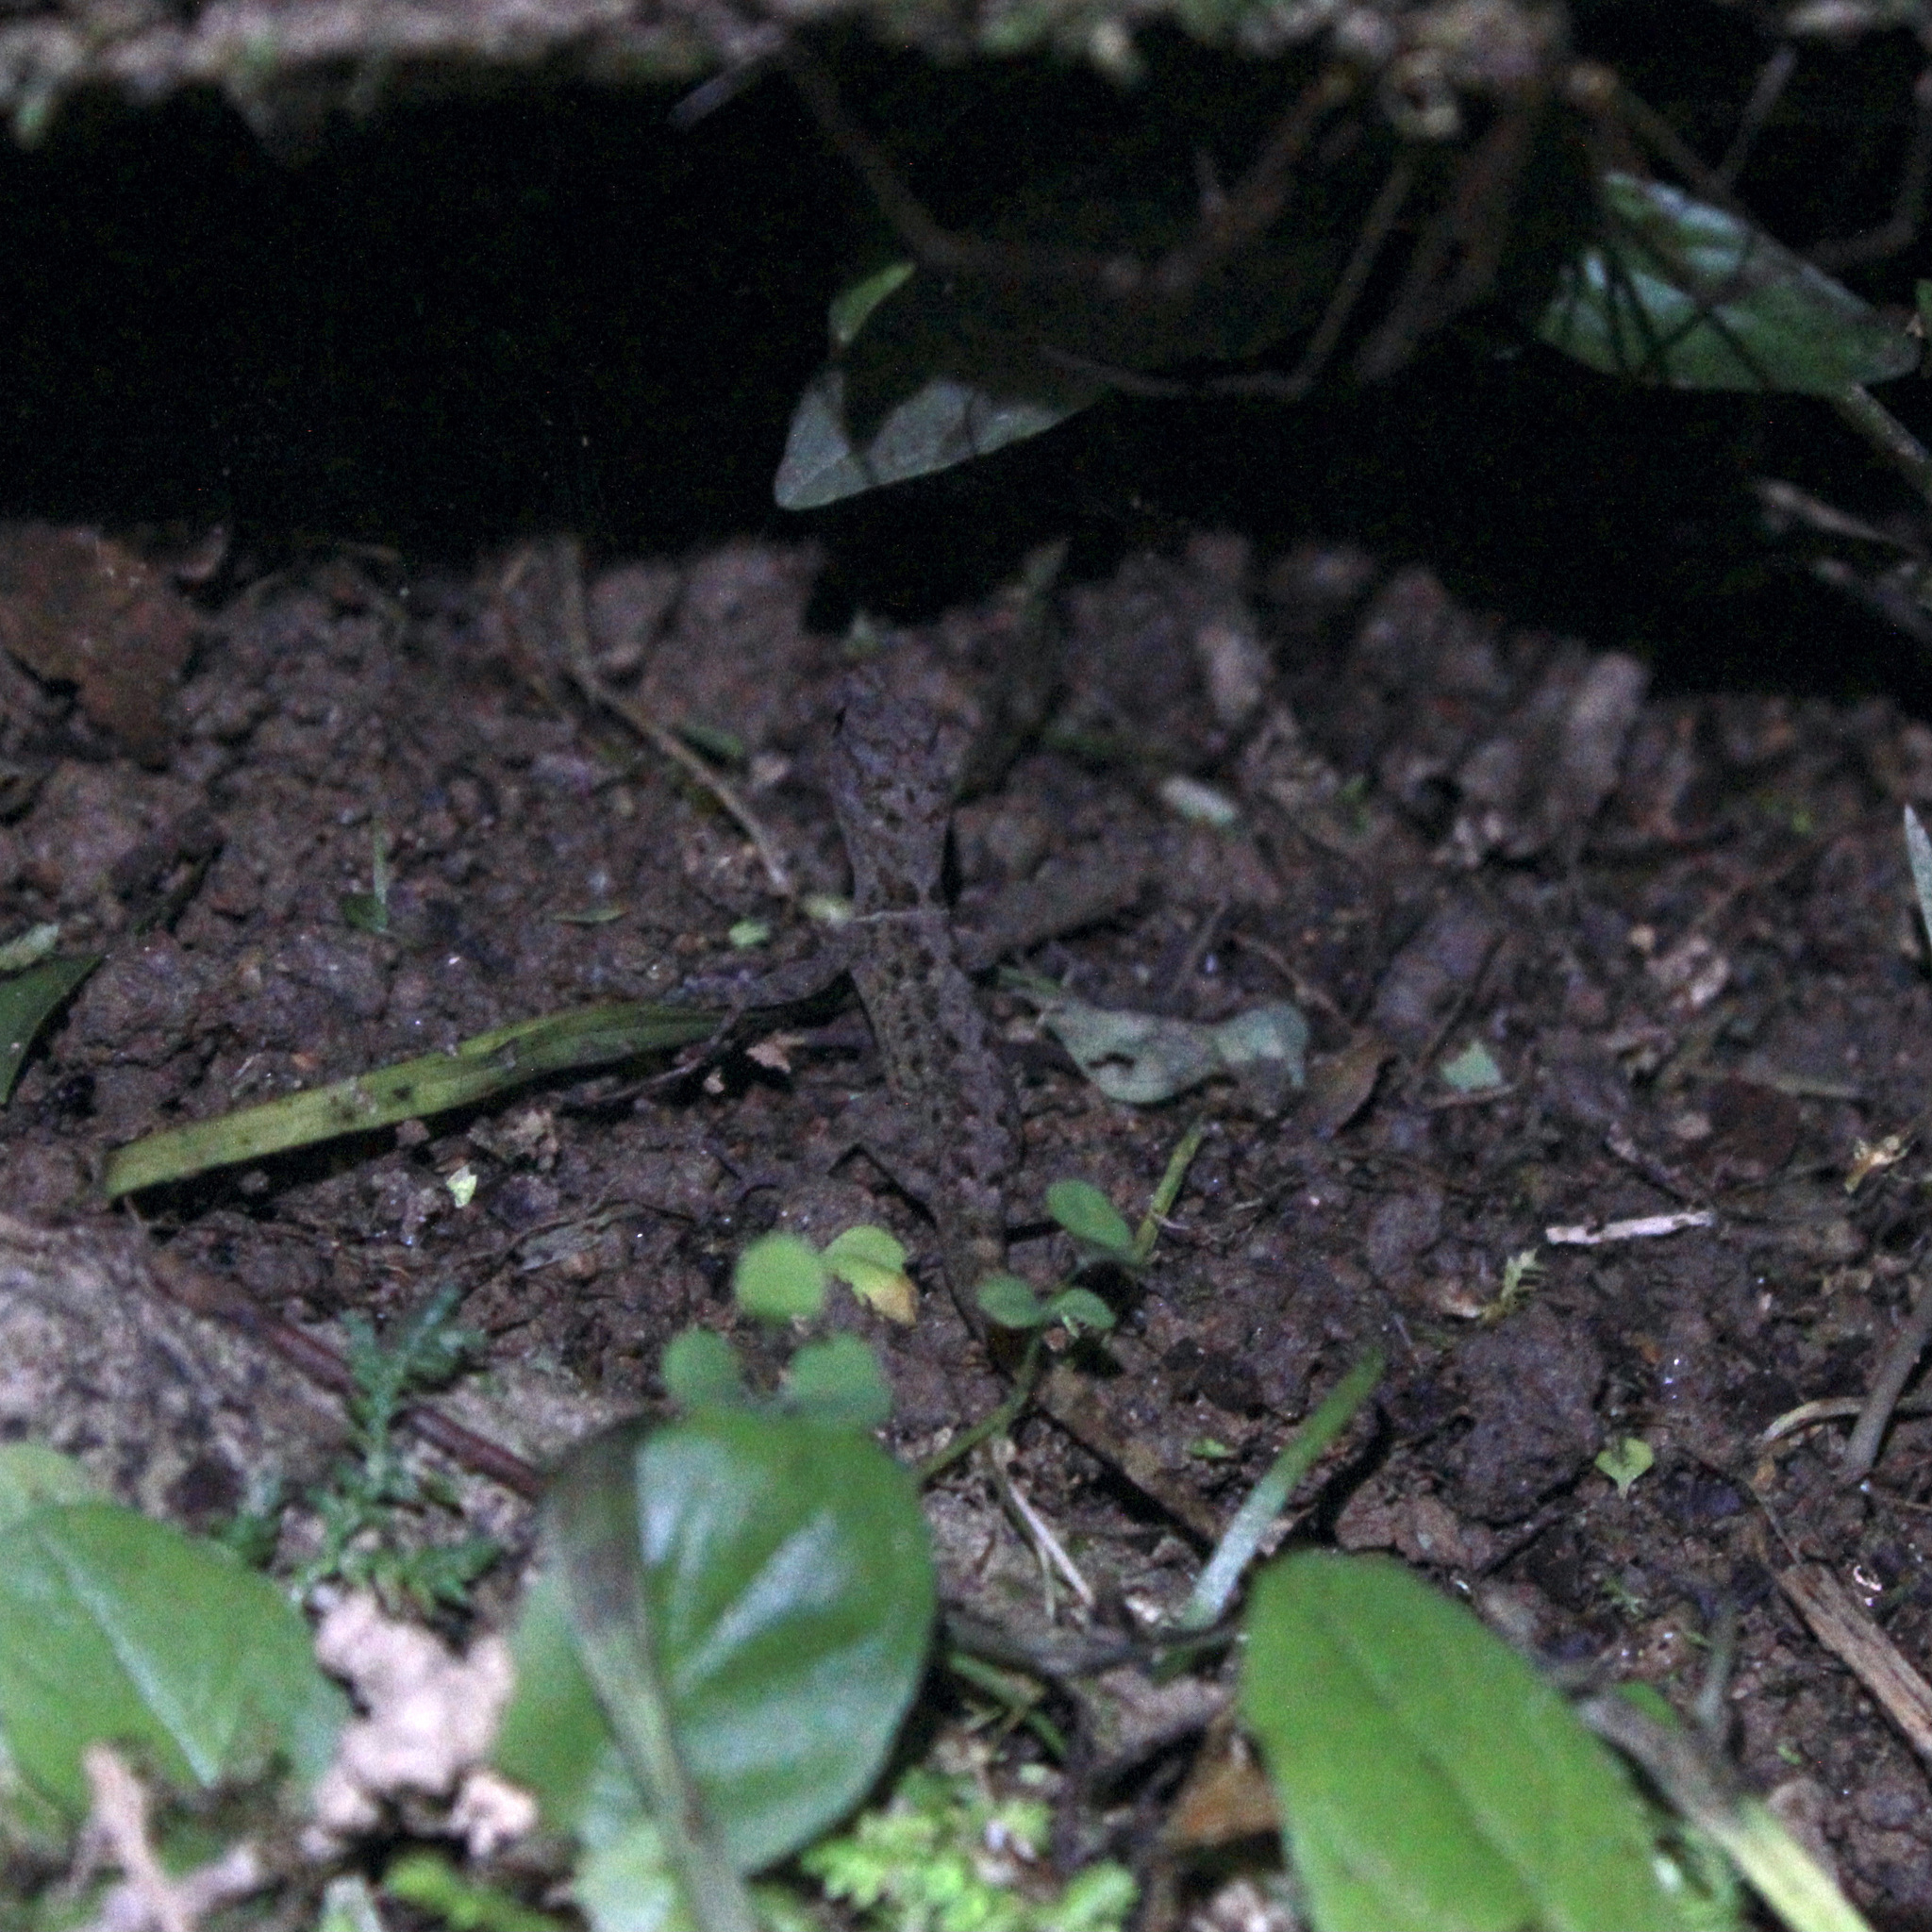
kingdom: Animalia
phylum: Chordata
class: Squamata
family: Sphaerodactylidae
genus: Gonatodes
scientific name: Gonatodes ceciliae
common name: Brilliant south american gecko
